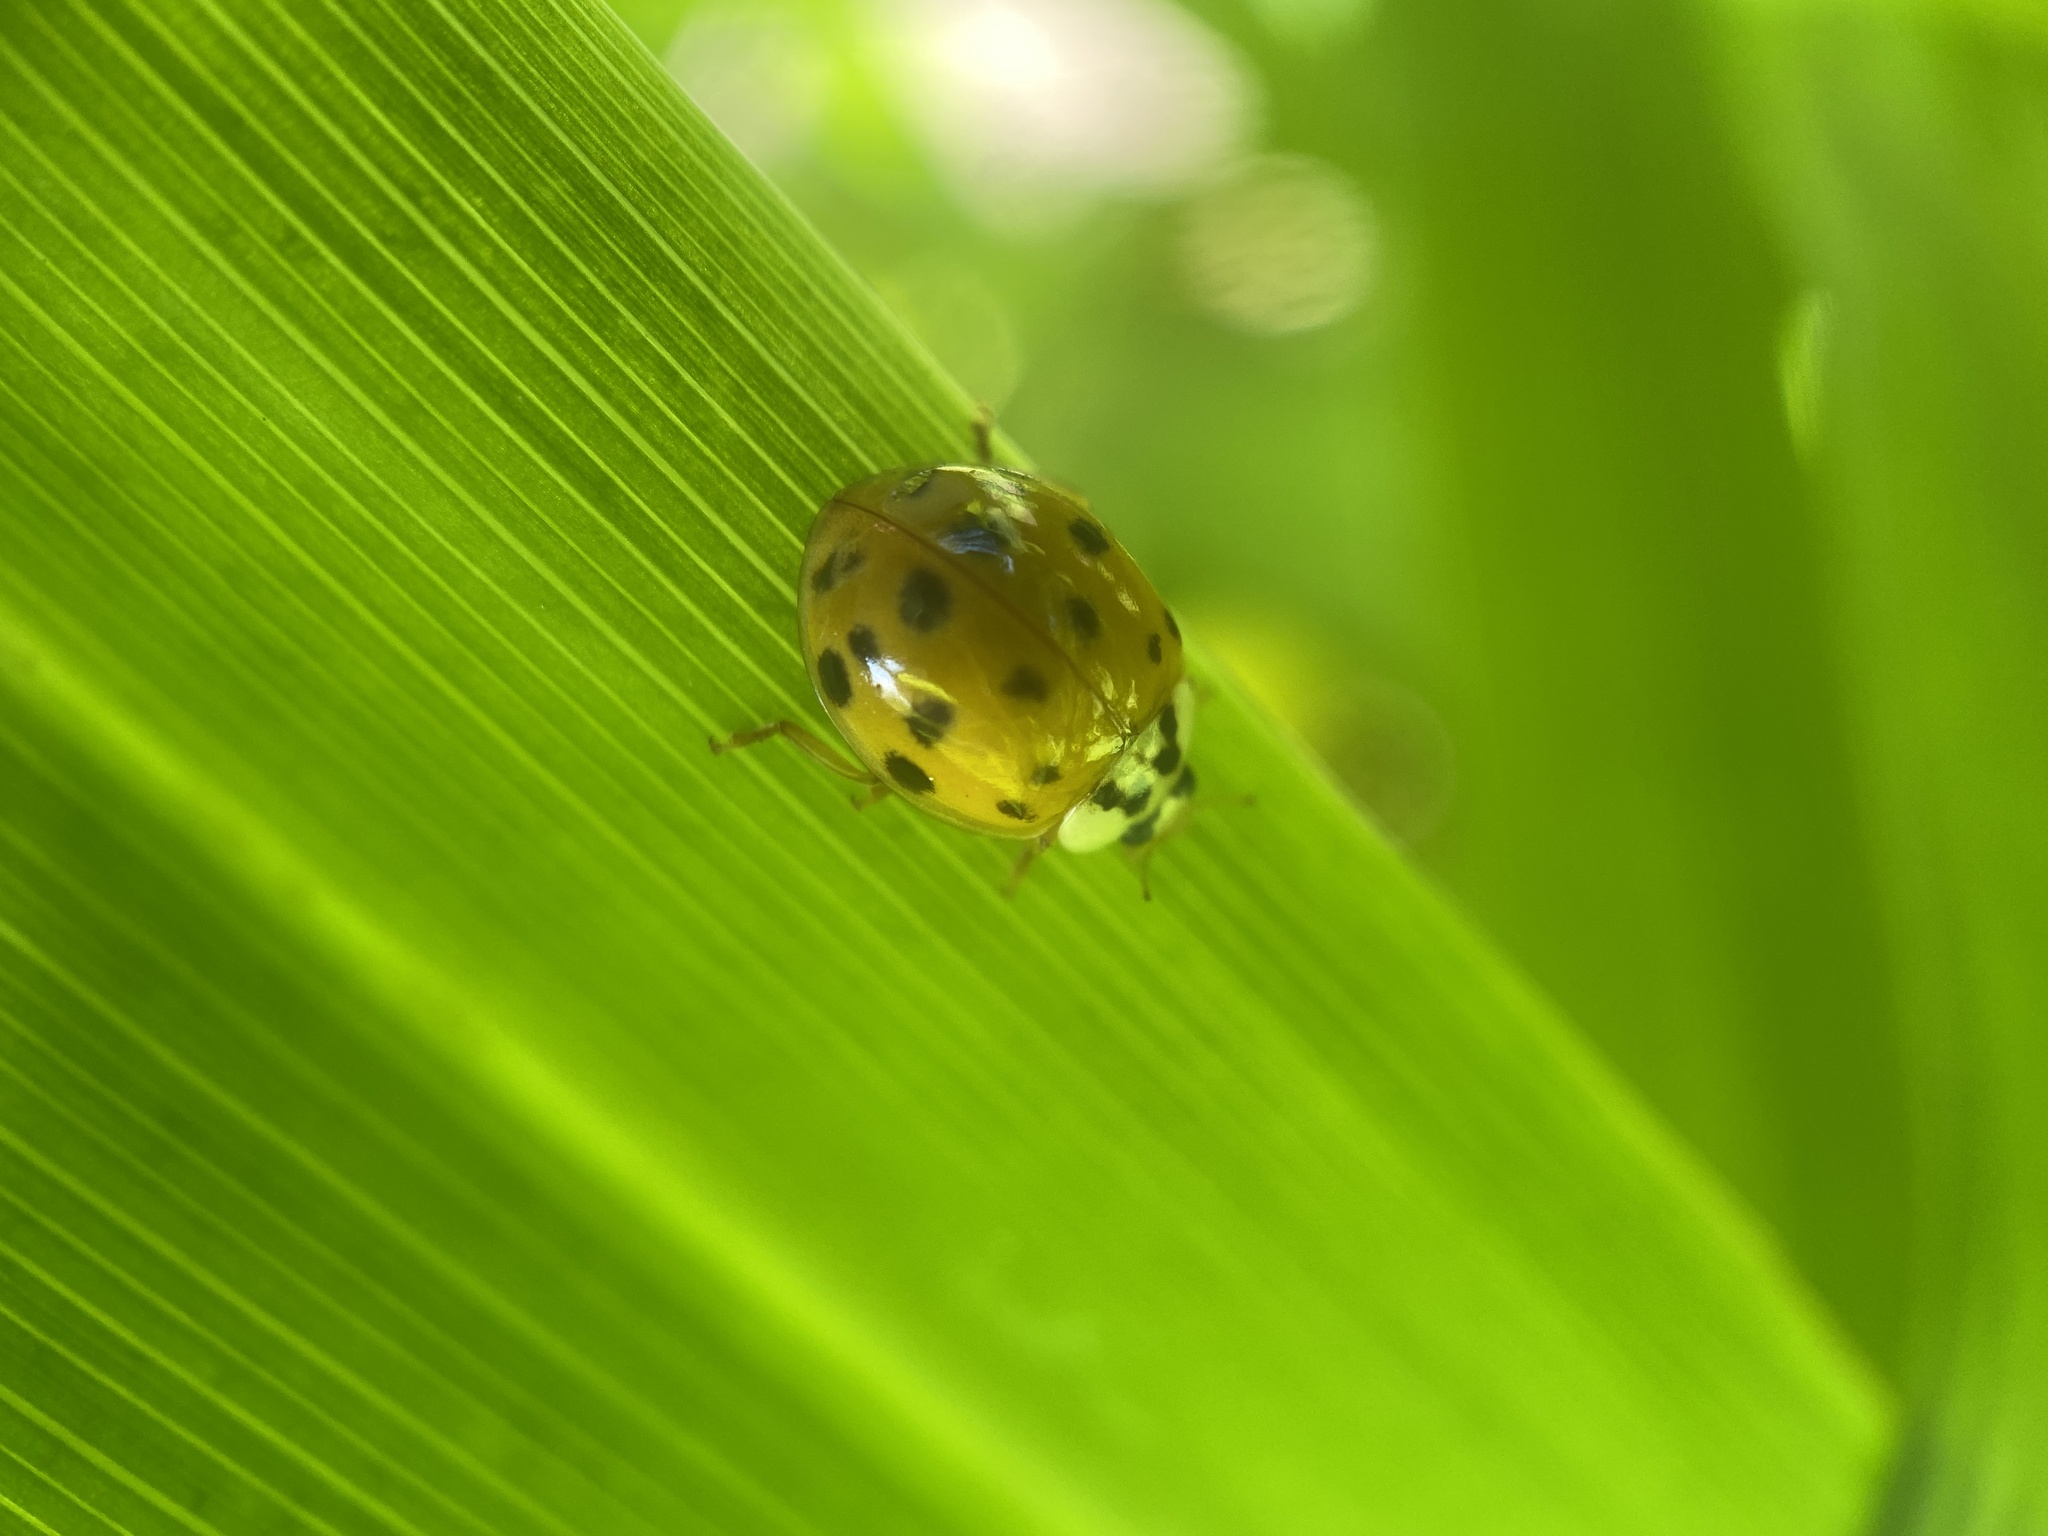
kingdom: Animalia
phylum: Arthropoda
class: Insecta
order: Coleoptera
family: Coccinellidae
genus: Harmonia
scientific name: Harmonia axyridis
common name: Harlequin ladybird
